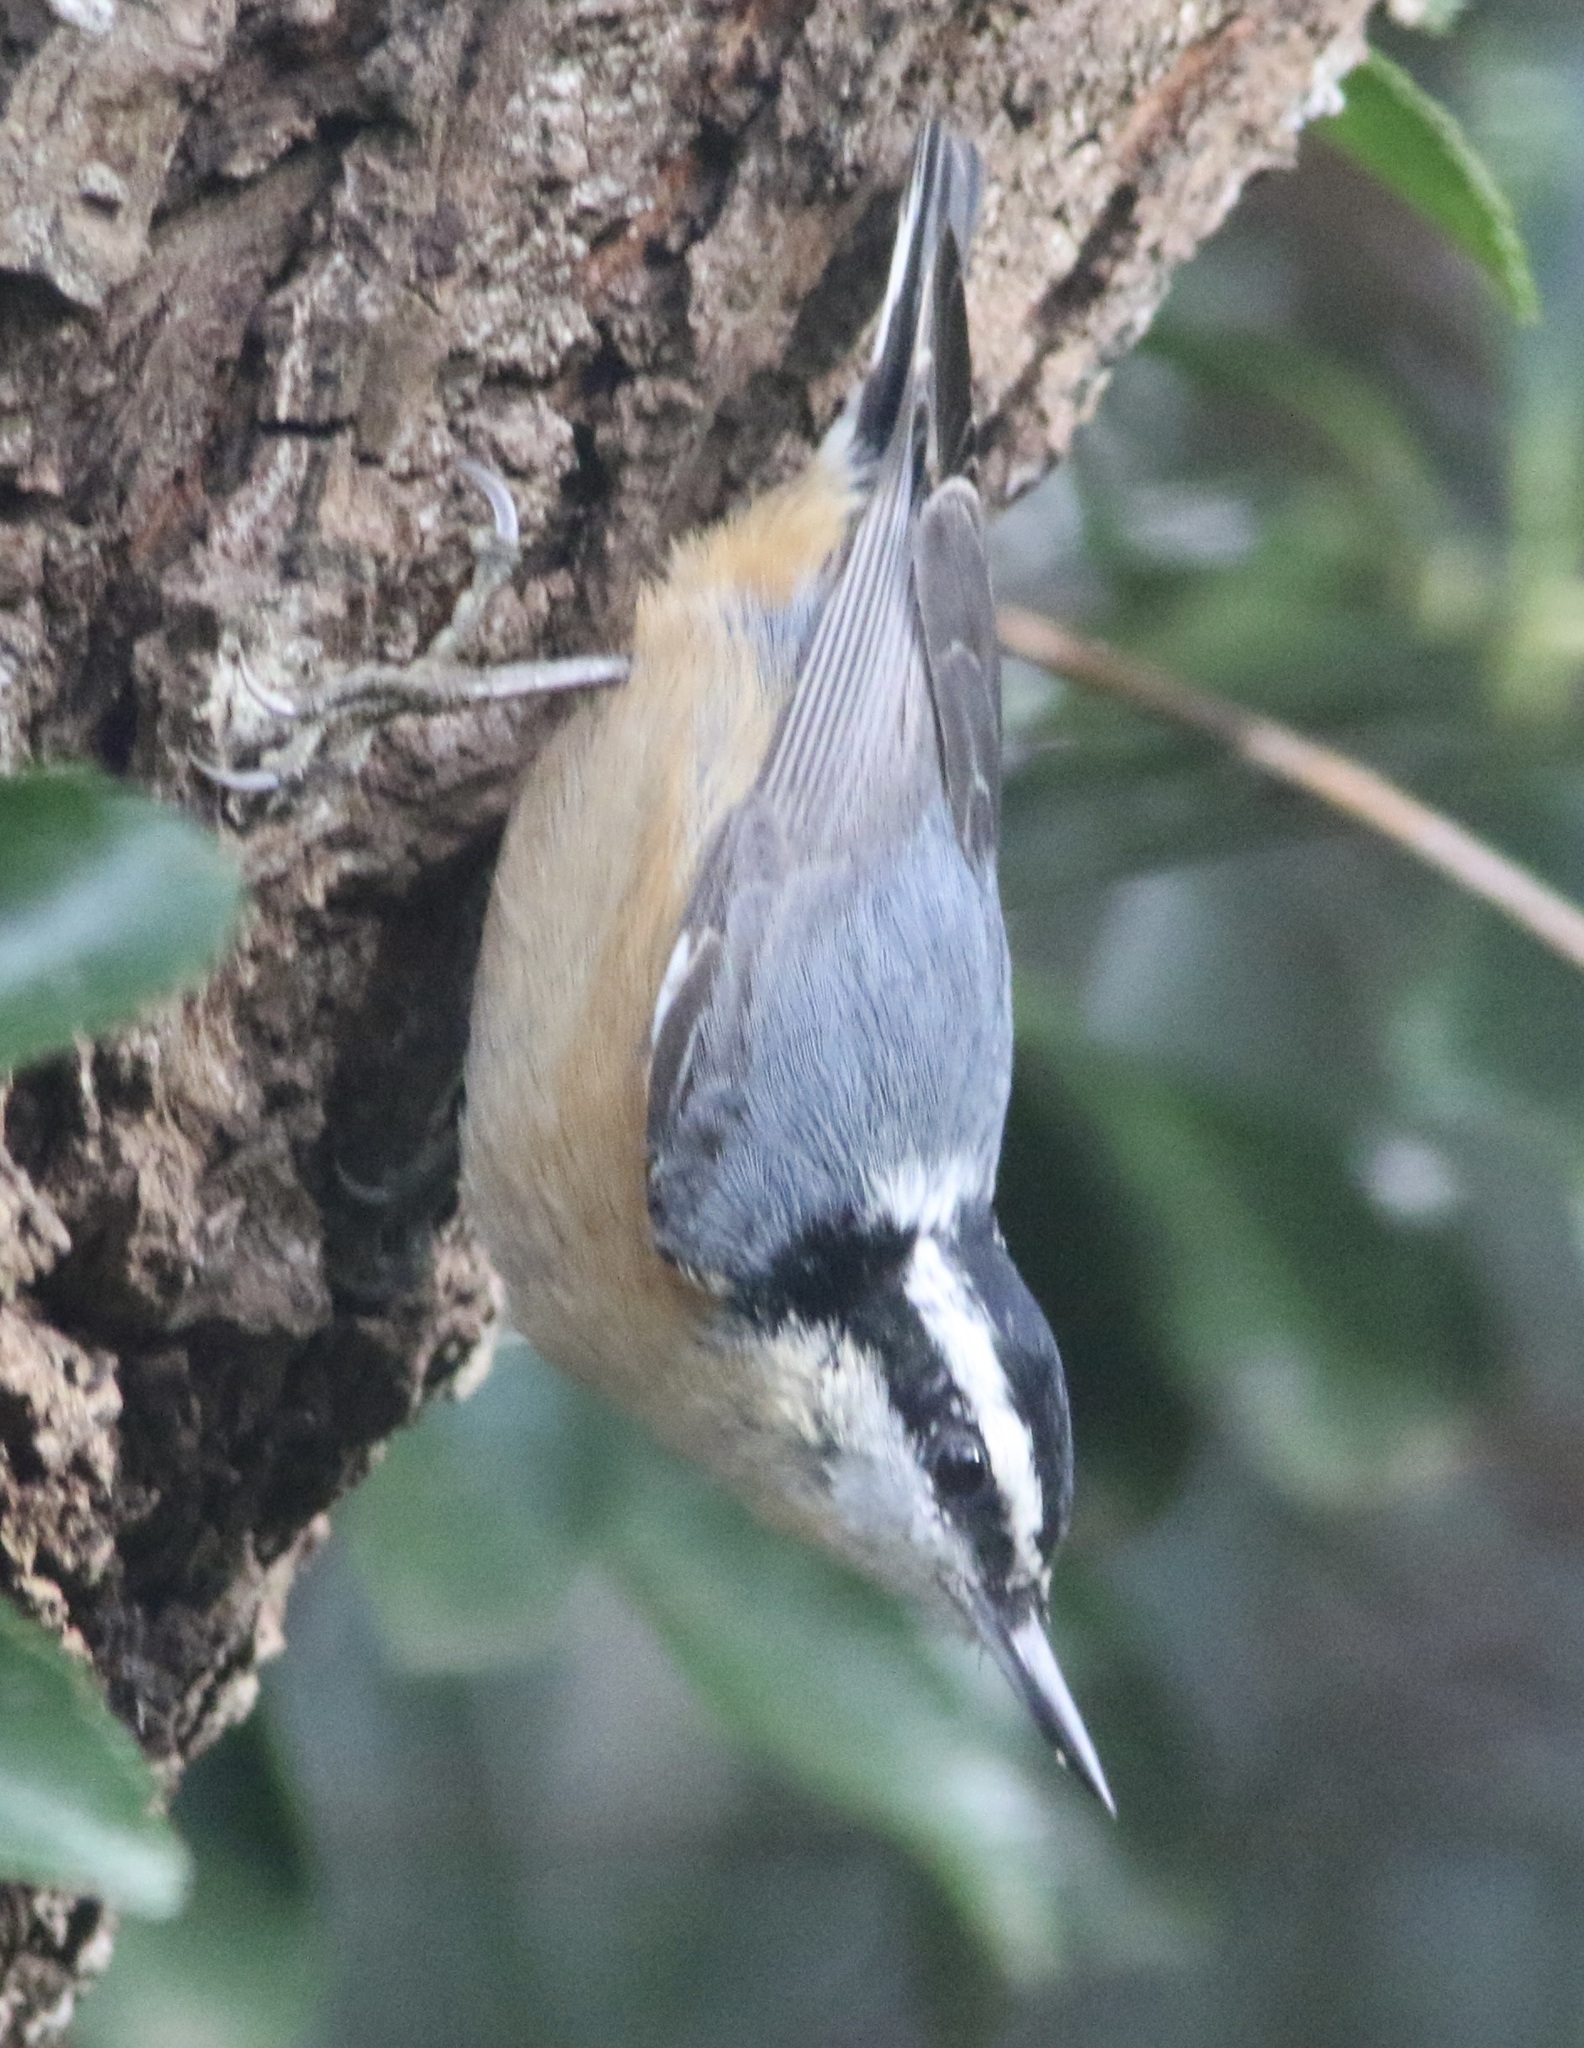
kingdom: Animalia
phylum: Chordata
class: Aves
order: Passeriformes
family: Sittidae
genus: Sitta
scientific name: Sitta canadensis
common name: Red-breasted nuthatch
